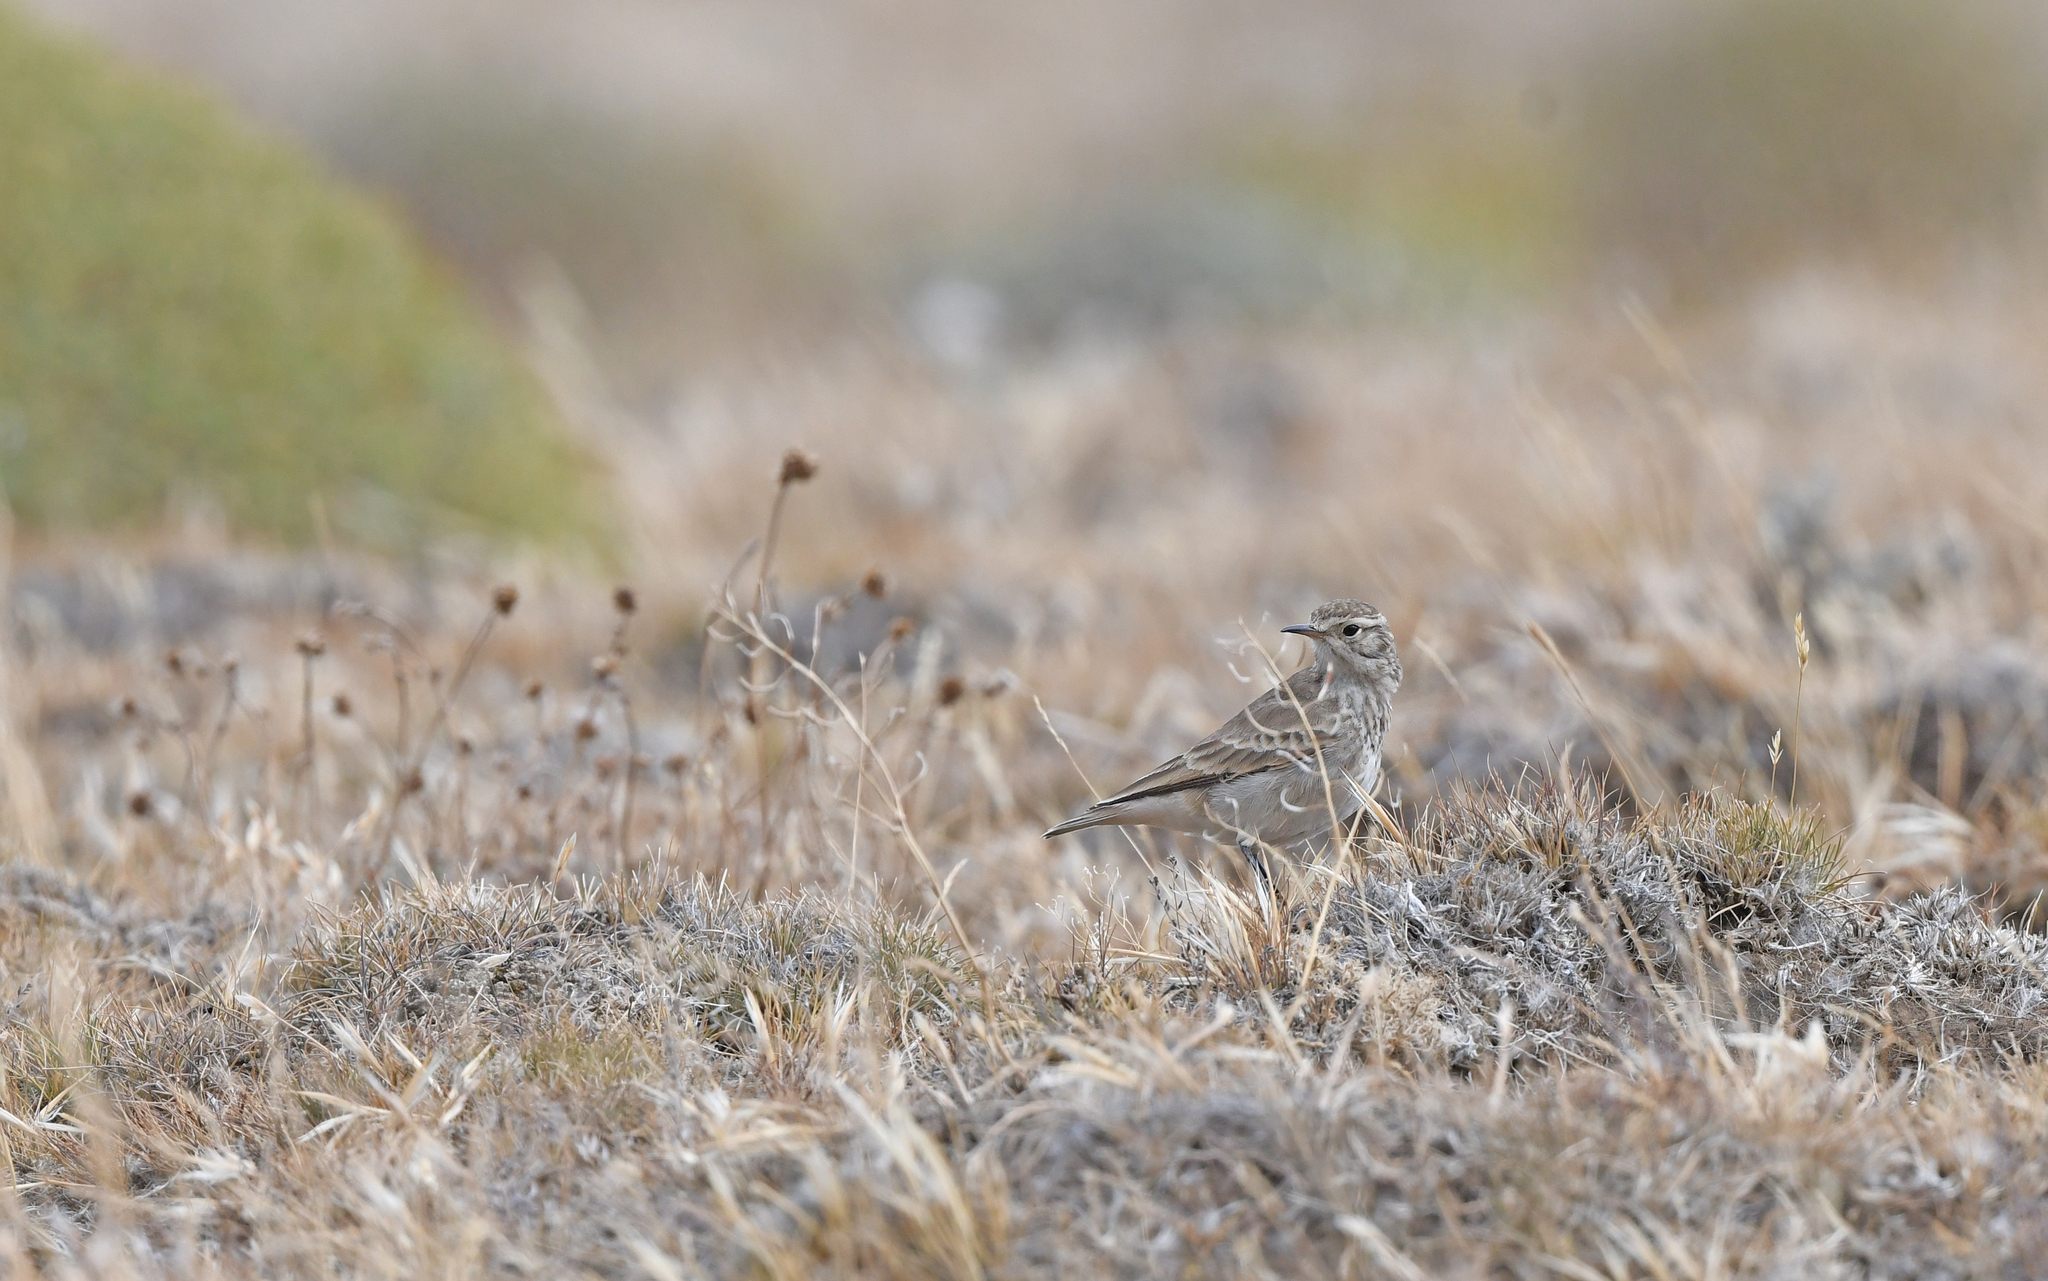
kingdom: Animalia
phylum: Chordata
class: Aves
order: Passeriformes
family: Furnariidae
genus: Geositta
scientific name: Geositta cunicularia
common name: Common miner
